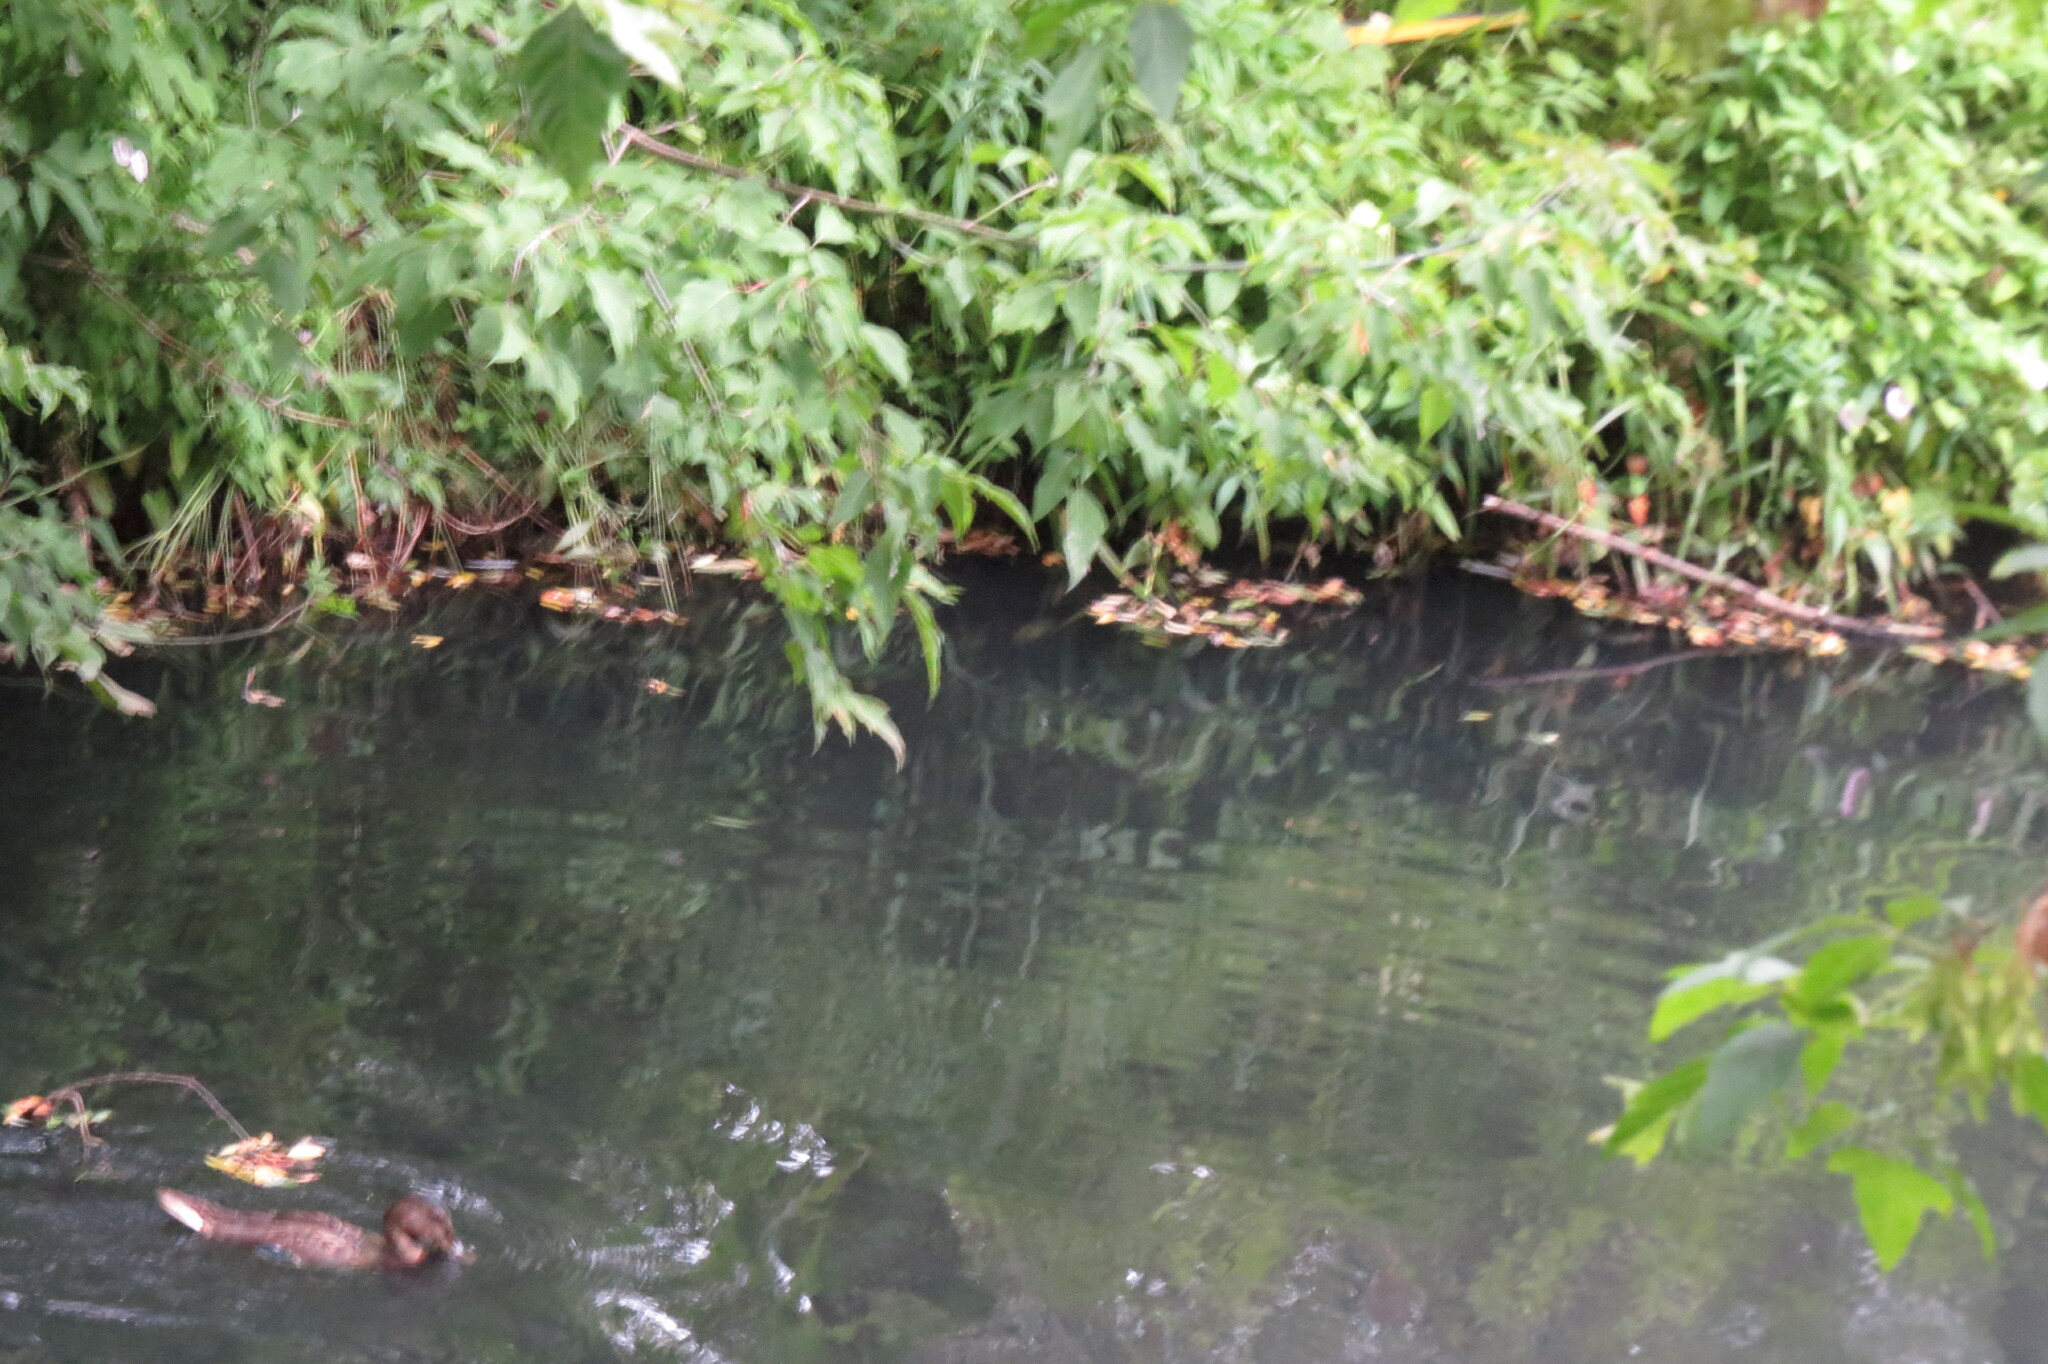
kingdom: Animalia
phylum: Chordata
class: Aves
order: Anseriformes
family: Anatidae
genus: Anas
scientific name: Anas platyrhynchos
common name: Mallard
